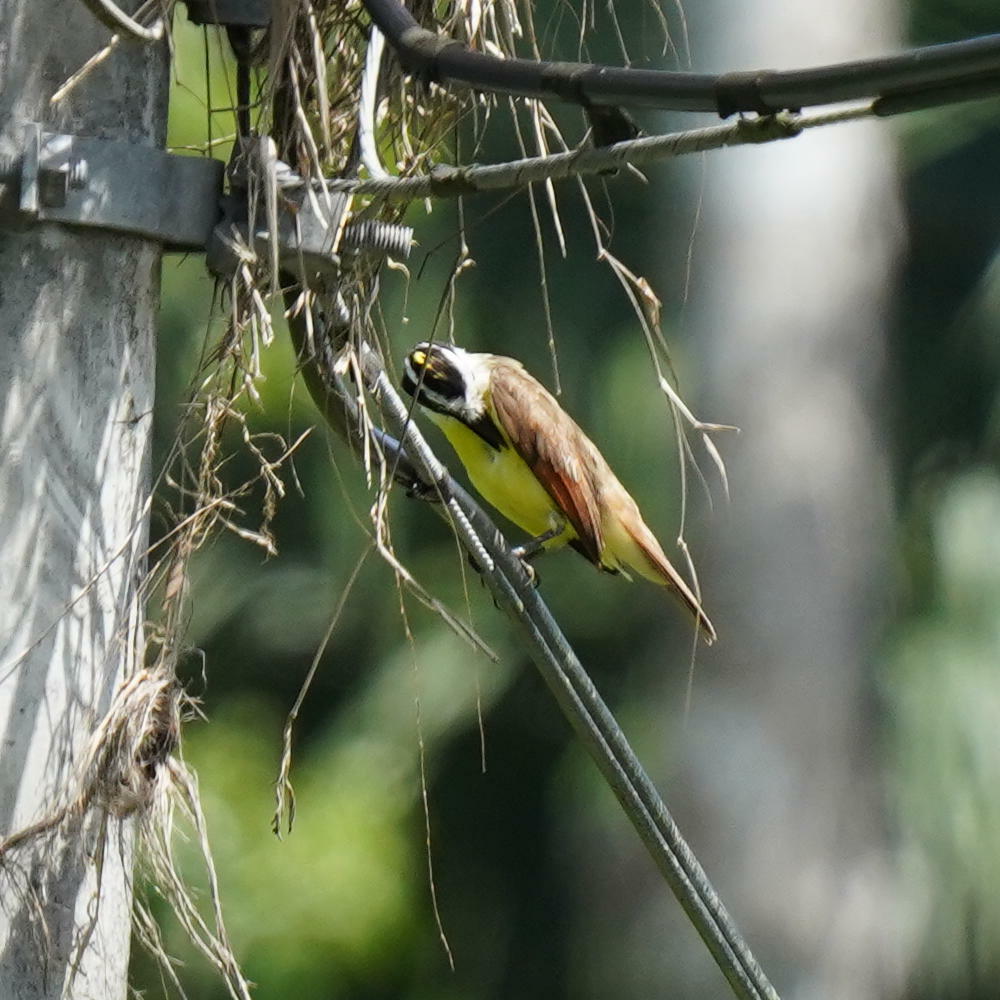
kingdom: Animalia
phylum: Chordata
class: Aves
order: Passeriformes
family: Tyrannidae
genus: Pitangus
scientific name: Pitangus sulphuratus
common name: Great kiskadee
